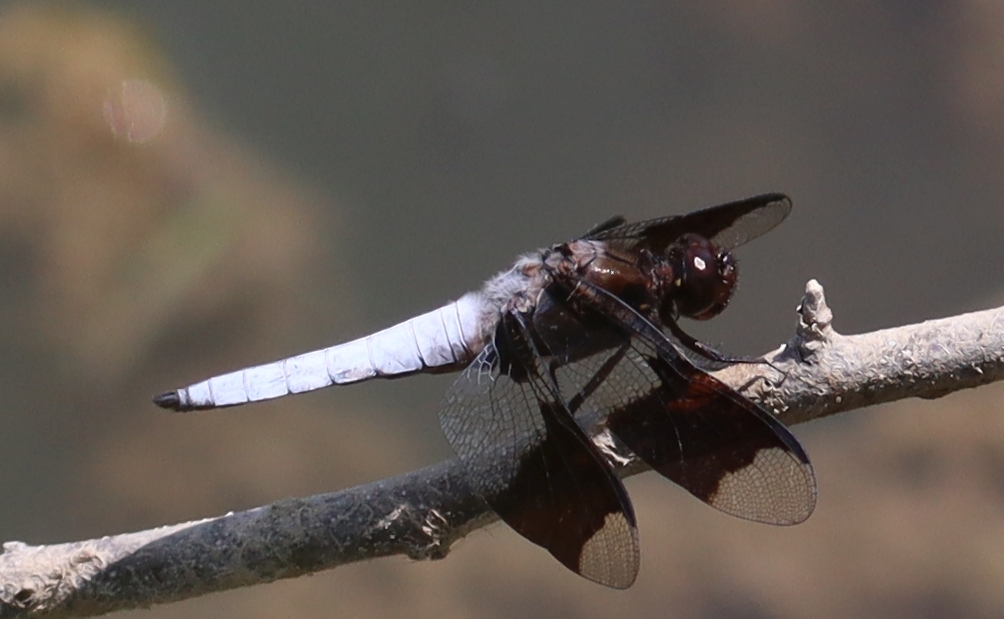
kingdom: Animalia
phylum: Arthropoda
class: Insecta
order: Odonata
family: Libellulidae
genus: Plathemis
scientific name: Plathemis lydia
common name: Common whitetail
